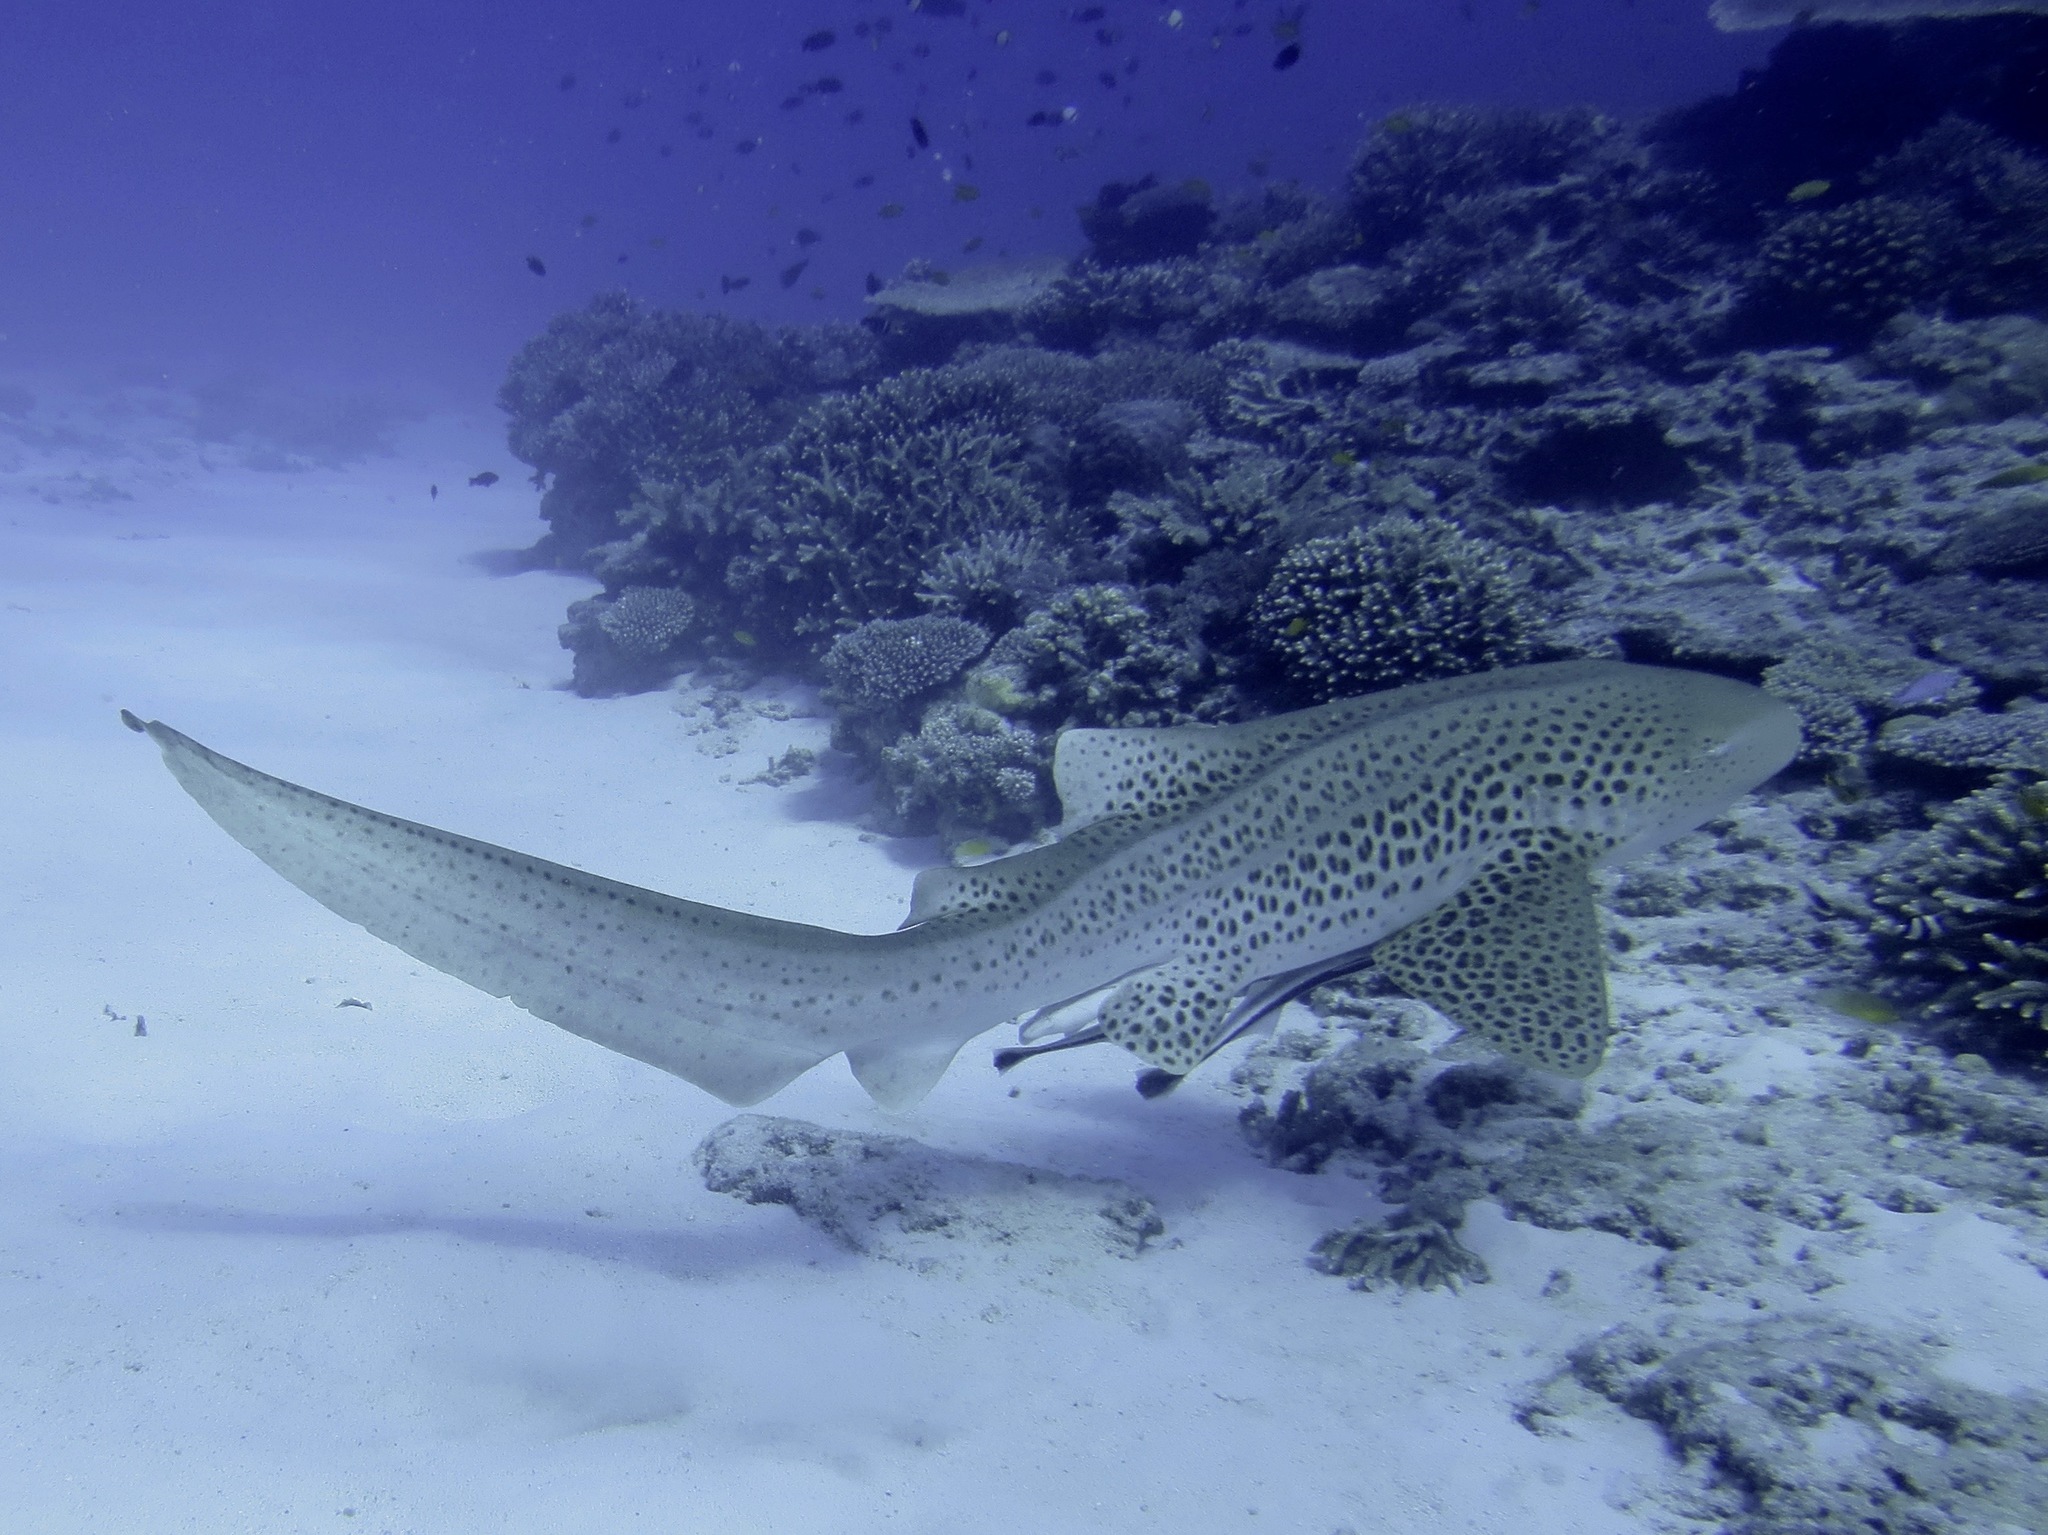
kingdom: Animalia
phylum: Chordata
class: Elasmobranchii
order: Orectolobiformes
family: Stegostomatidae
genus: Stegostoma
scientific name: Stegostoma fasciatum
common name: Zebra shark
